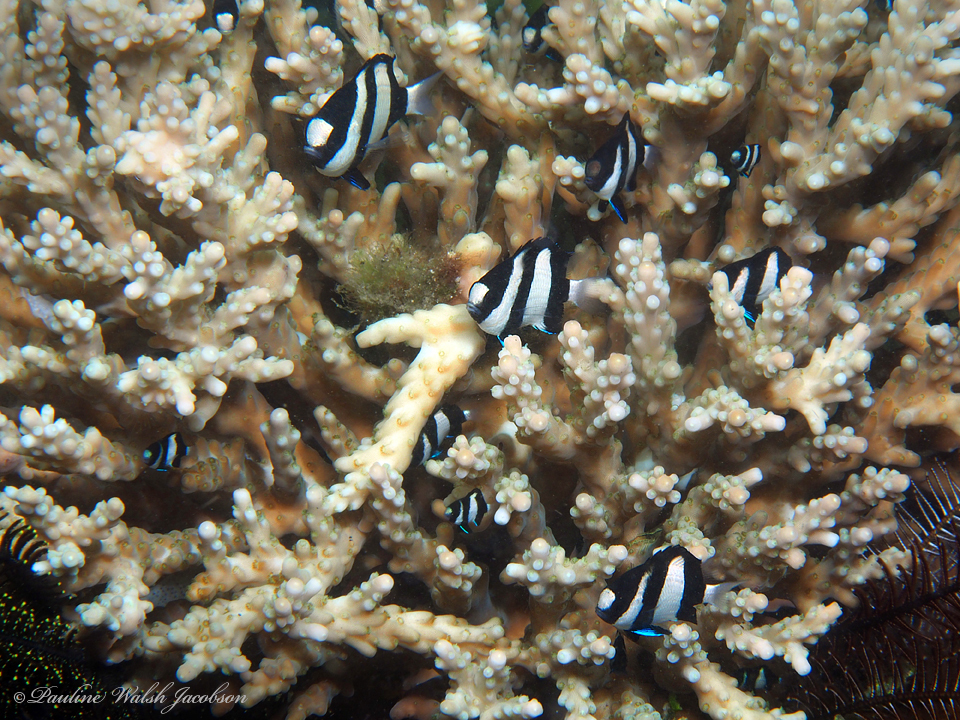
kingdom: Animalia
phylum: Chordata
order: Perciformes
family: Pomacentridae
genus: Dascyllus
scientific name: Dascyllus aruanus
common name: Humbug dascyllus
